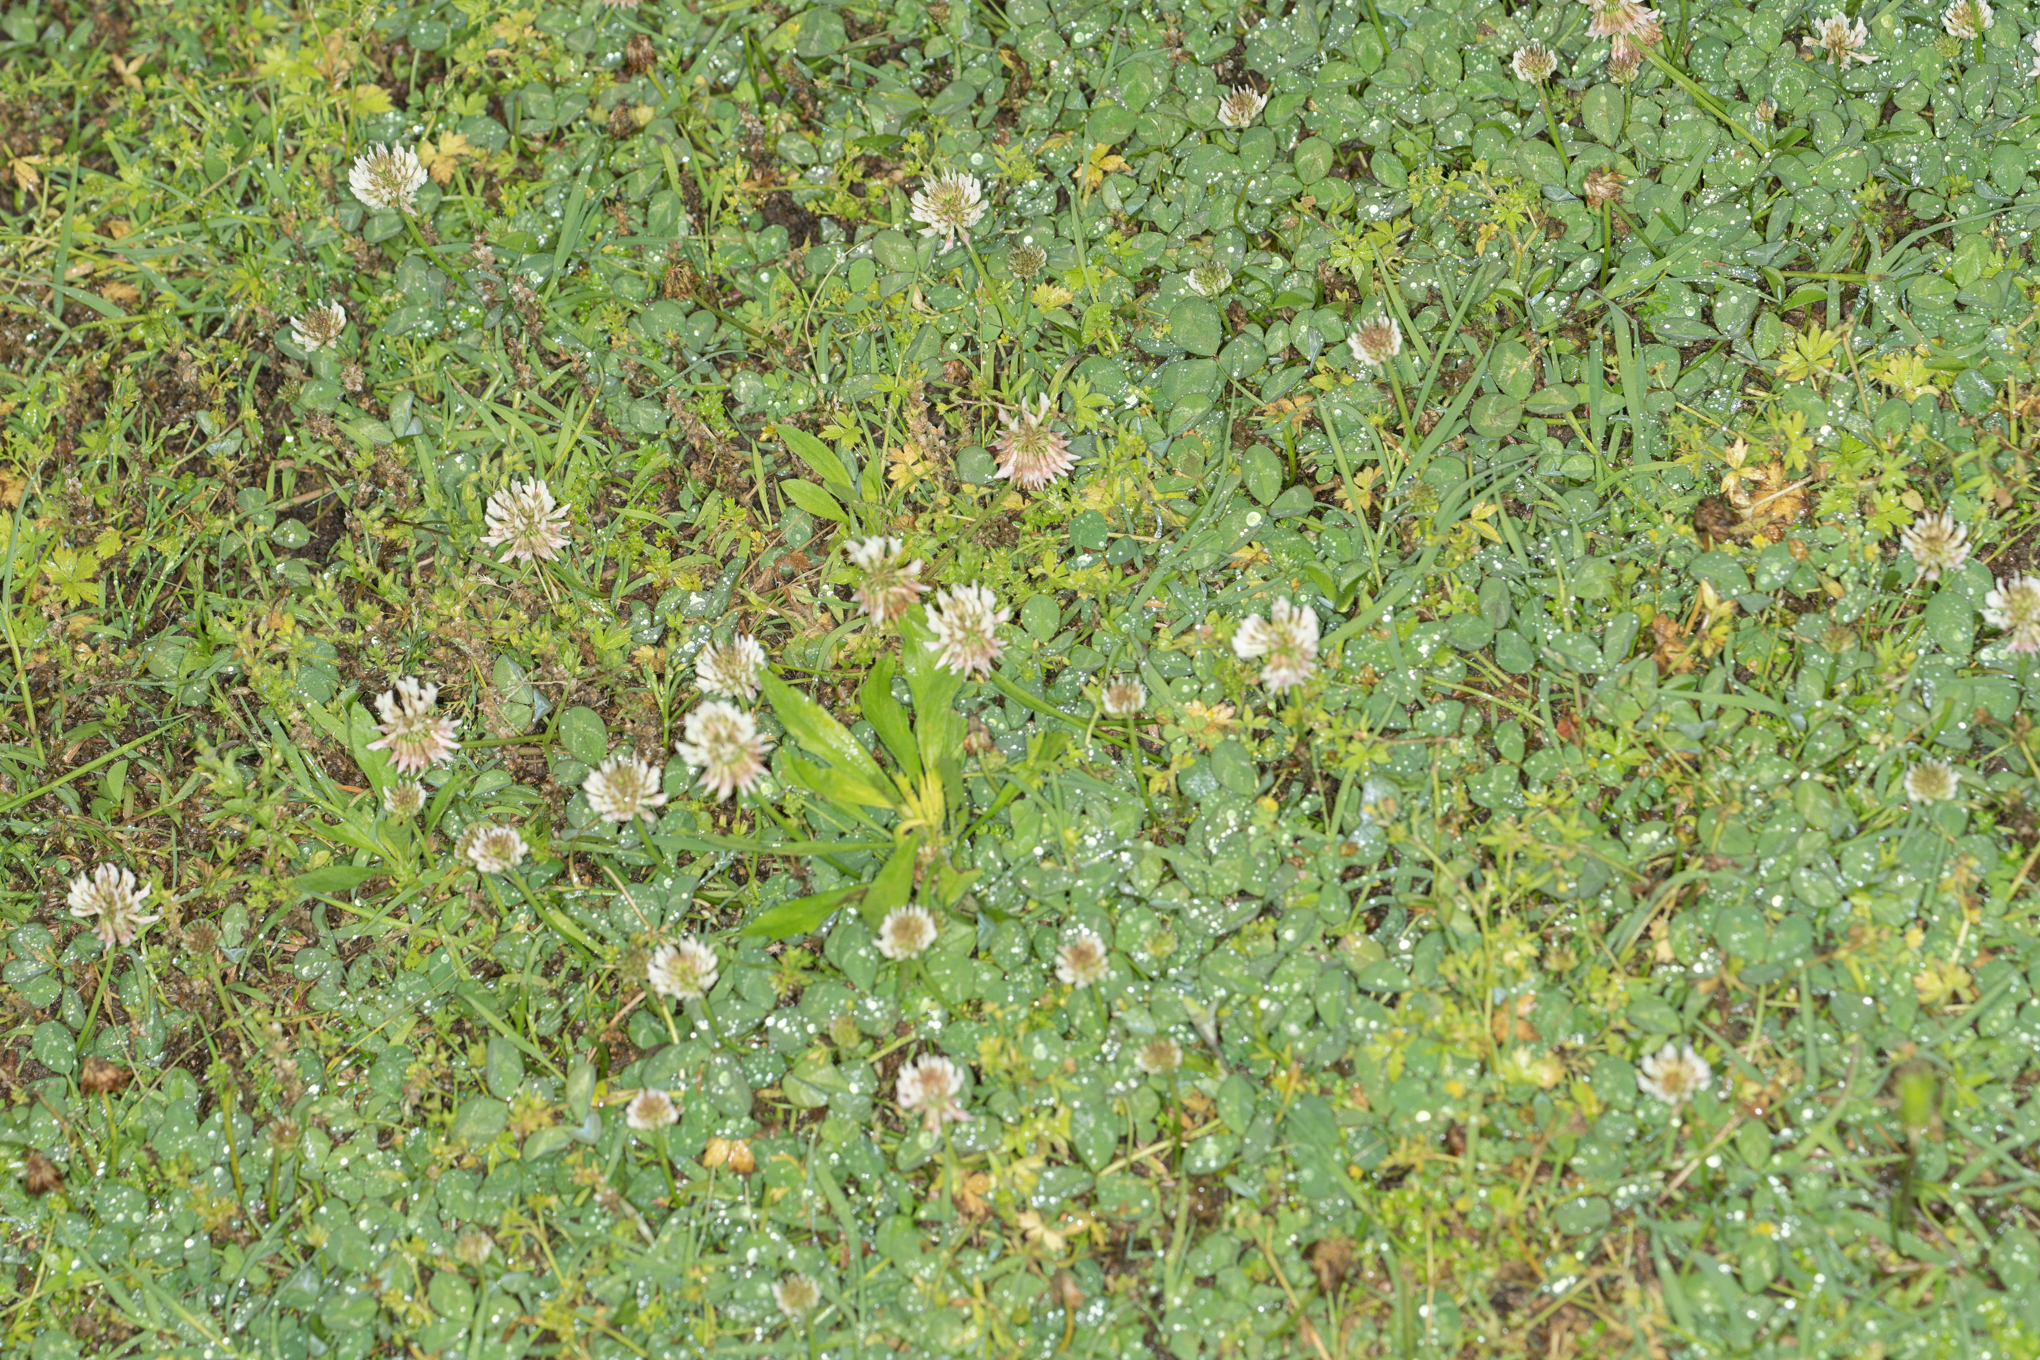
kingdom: Plantae
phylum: Tracheophyta
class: Magnoliopsida
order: Fabales
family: Fabaceae
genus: Trifolium
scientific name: Trifolium repens
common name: White clover
